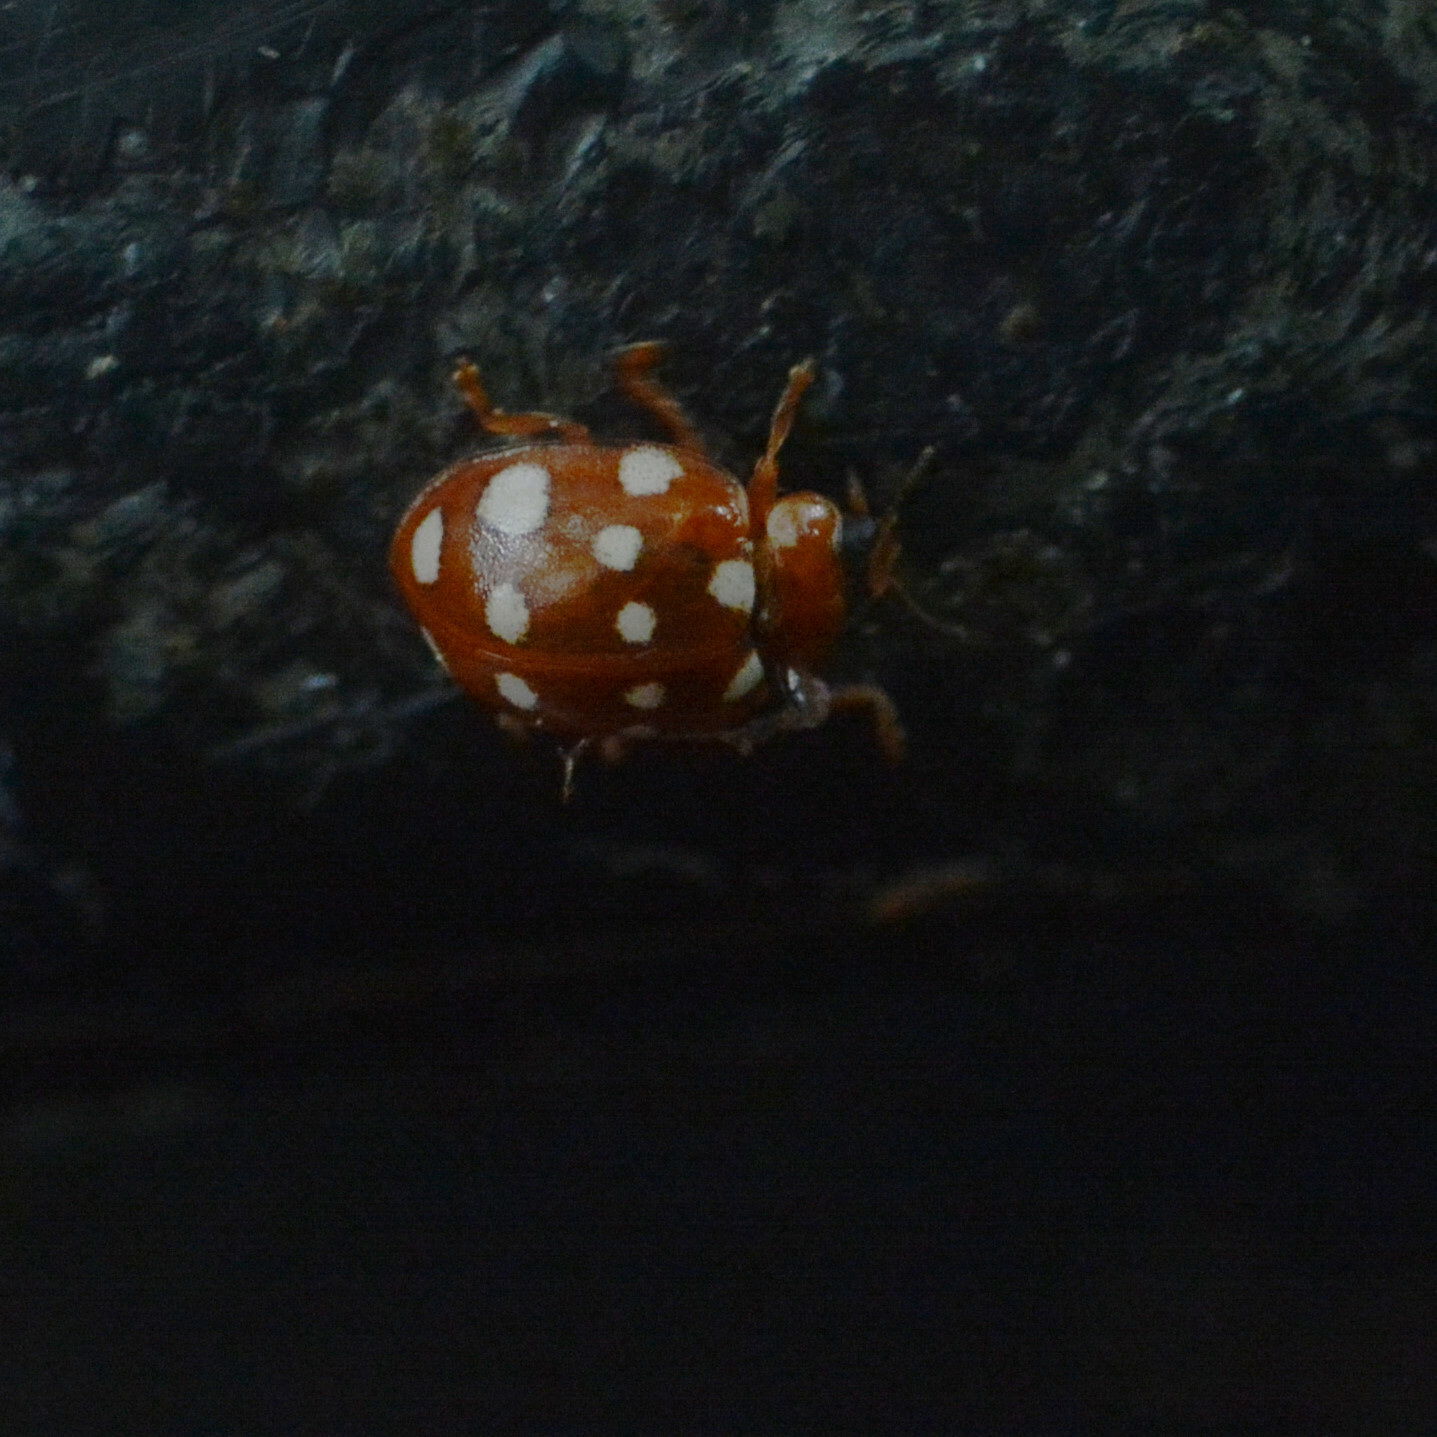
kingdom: Animalia
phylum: Arthropoda
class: Insecta
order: Coleoptera
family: Coccinellidae
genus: Calvia
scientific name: Calvia quatuordecimguttata
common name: Cream-spot ladybird
